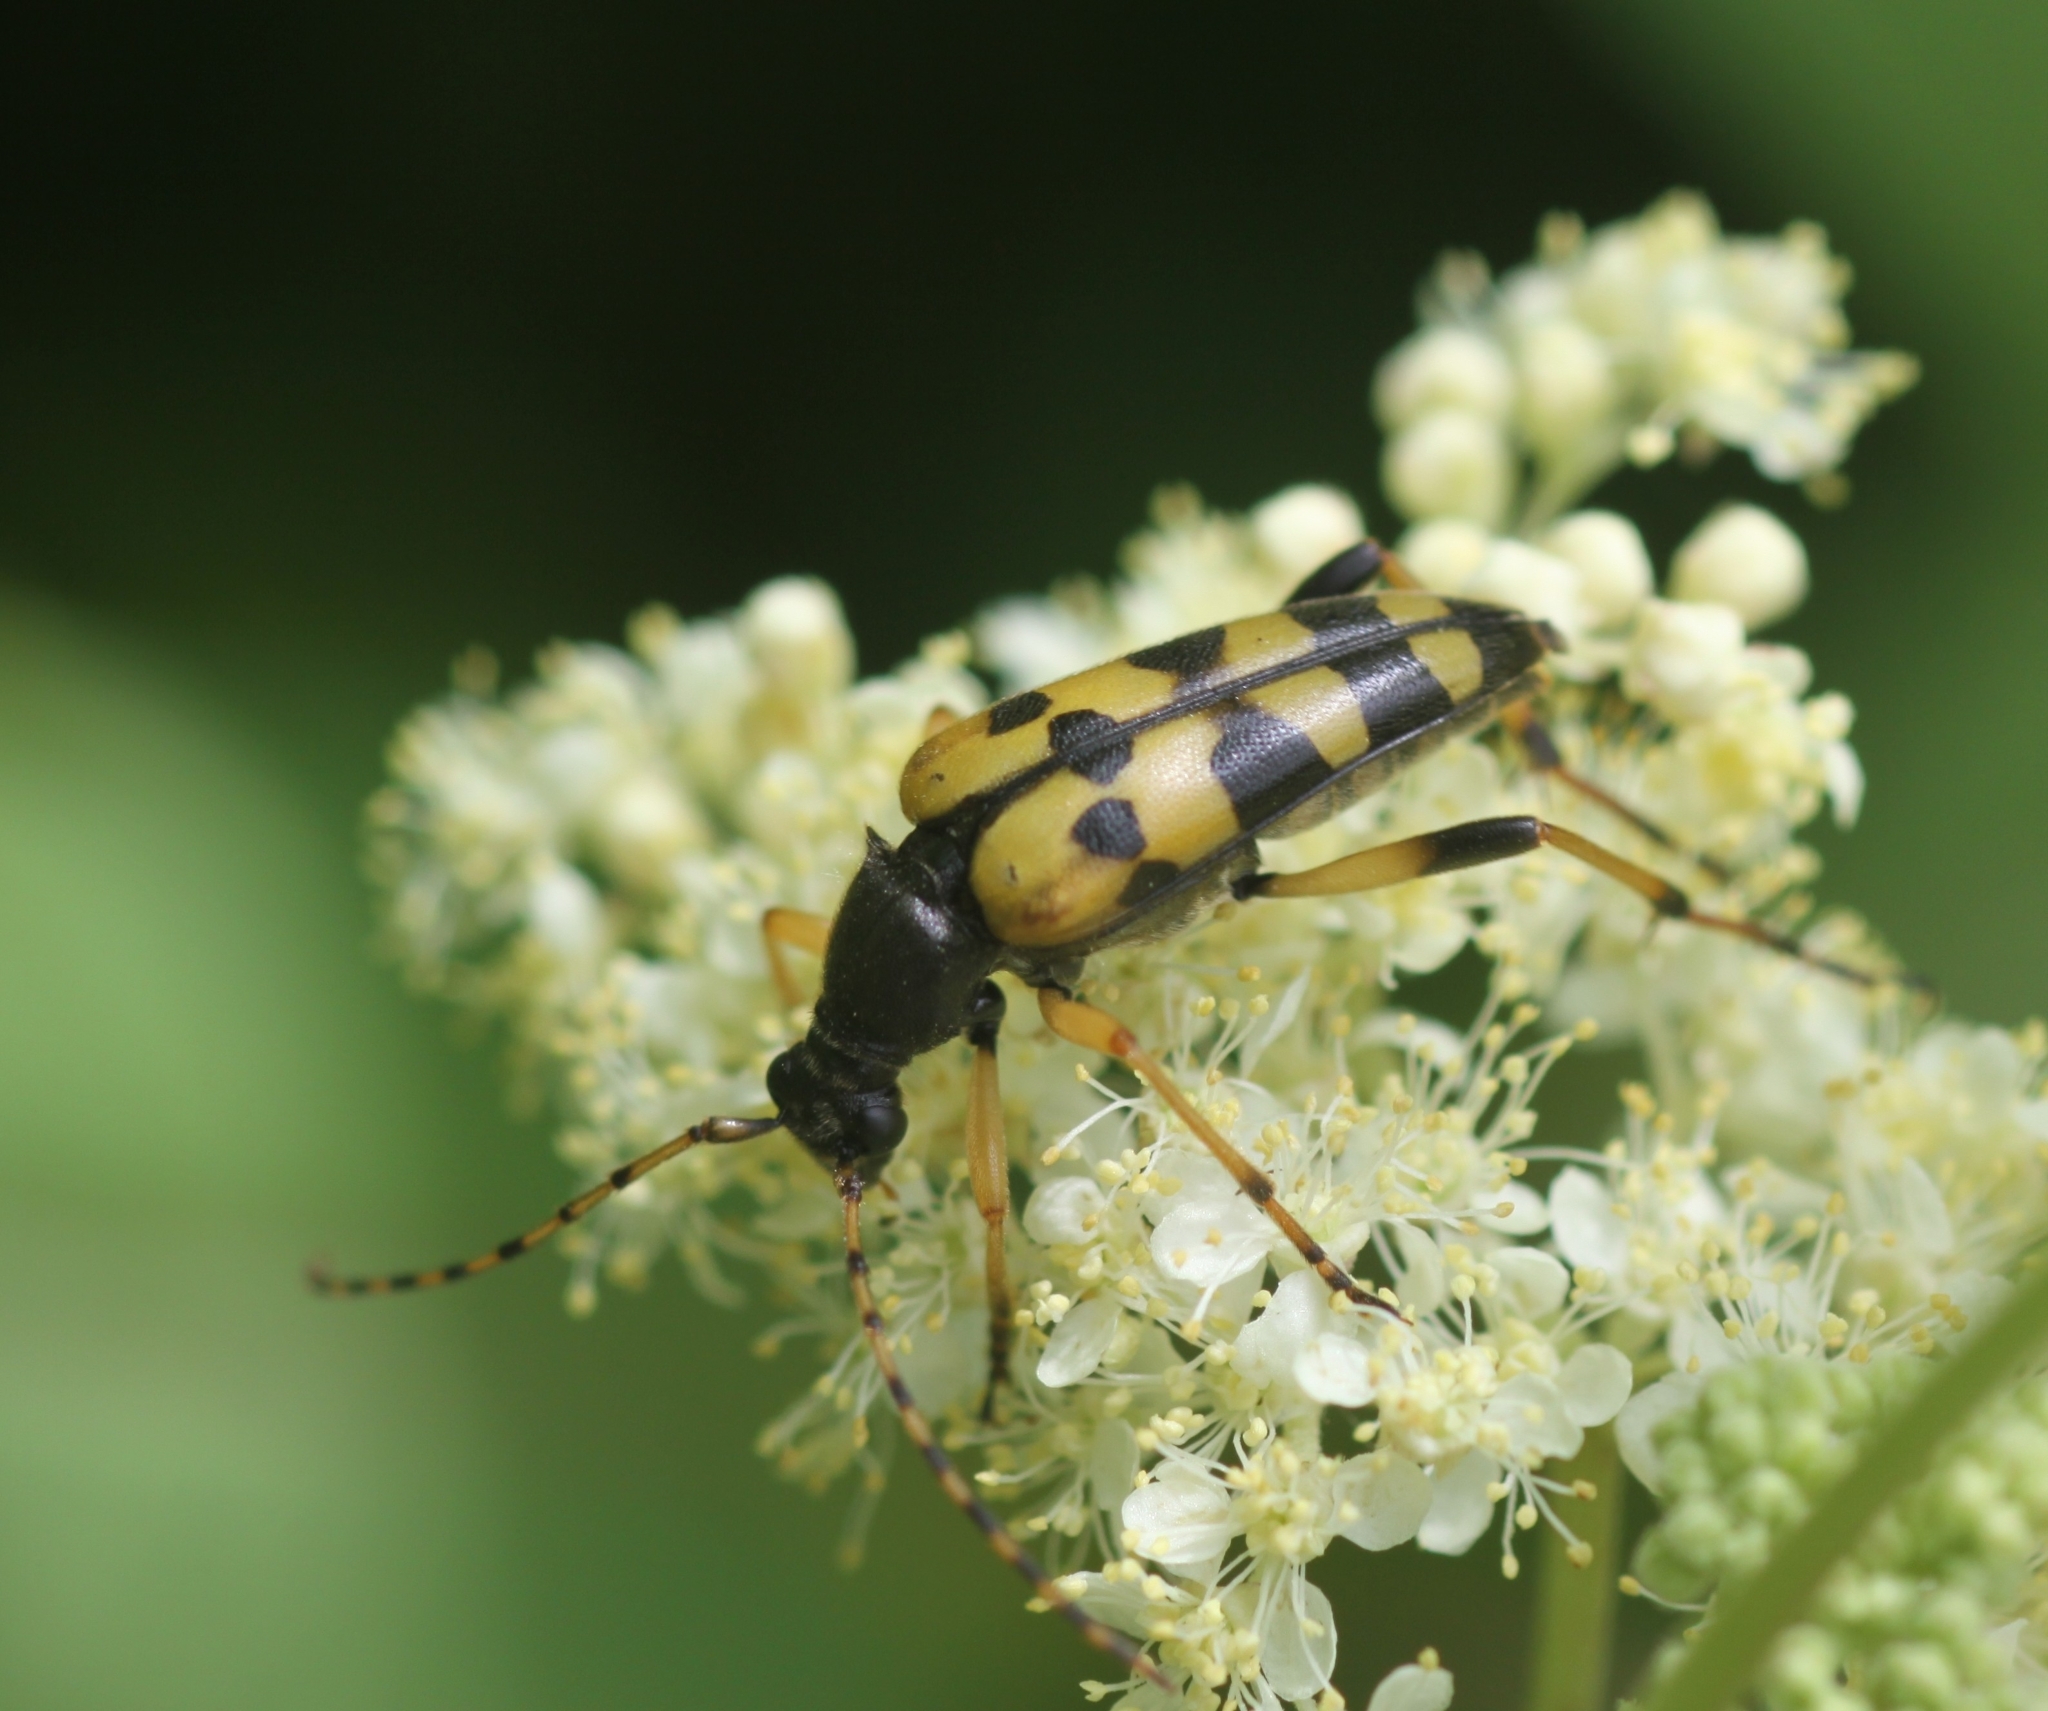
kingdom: Animalia
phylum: Arthropoda
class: Insecta
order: Coleoptera
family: Cerambycidae
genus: Rutpela
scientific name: Rutpela maculata
